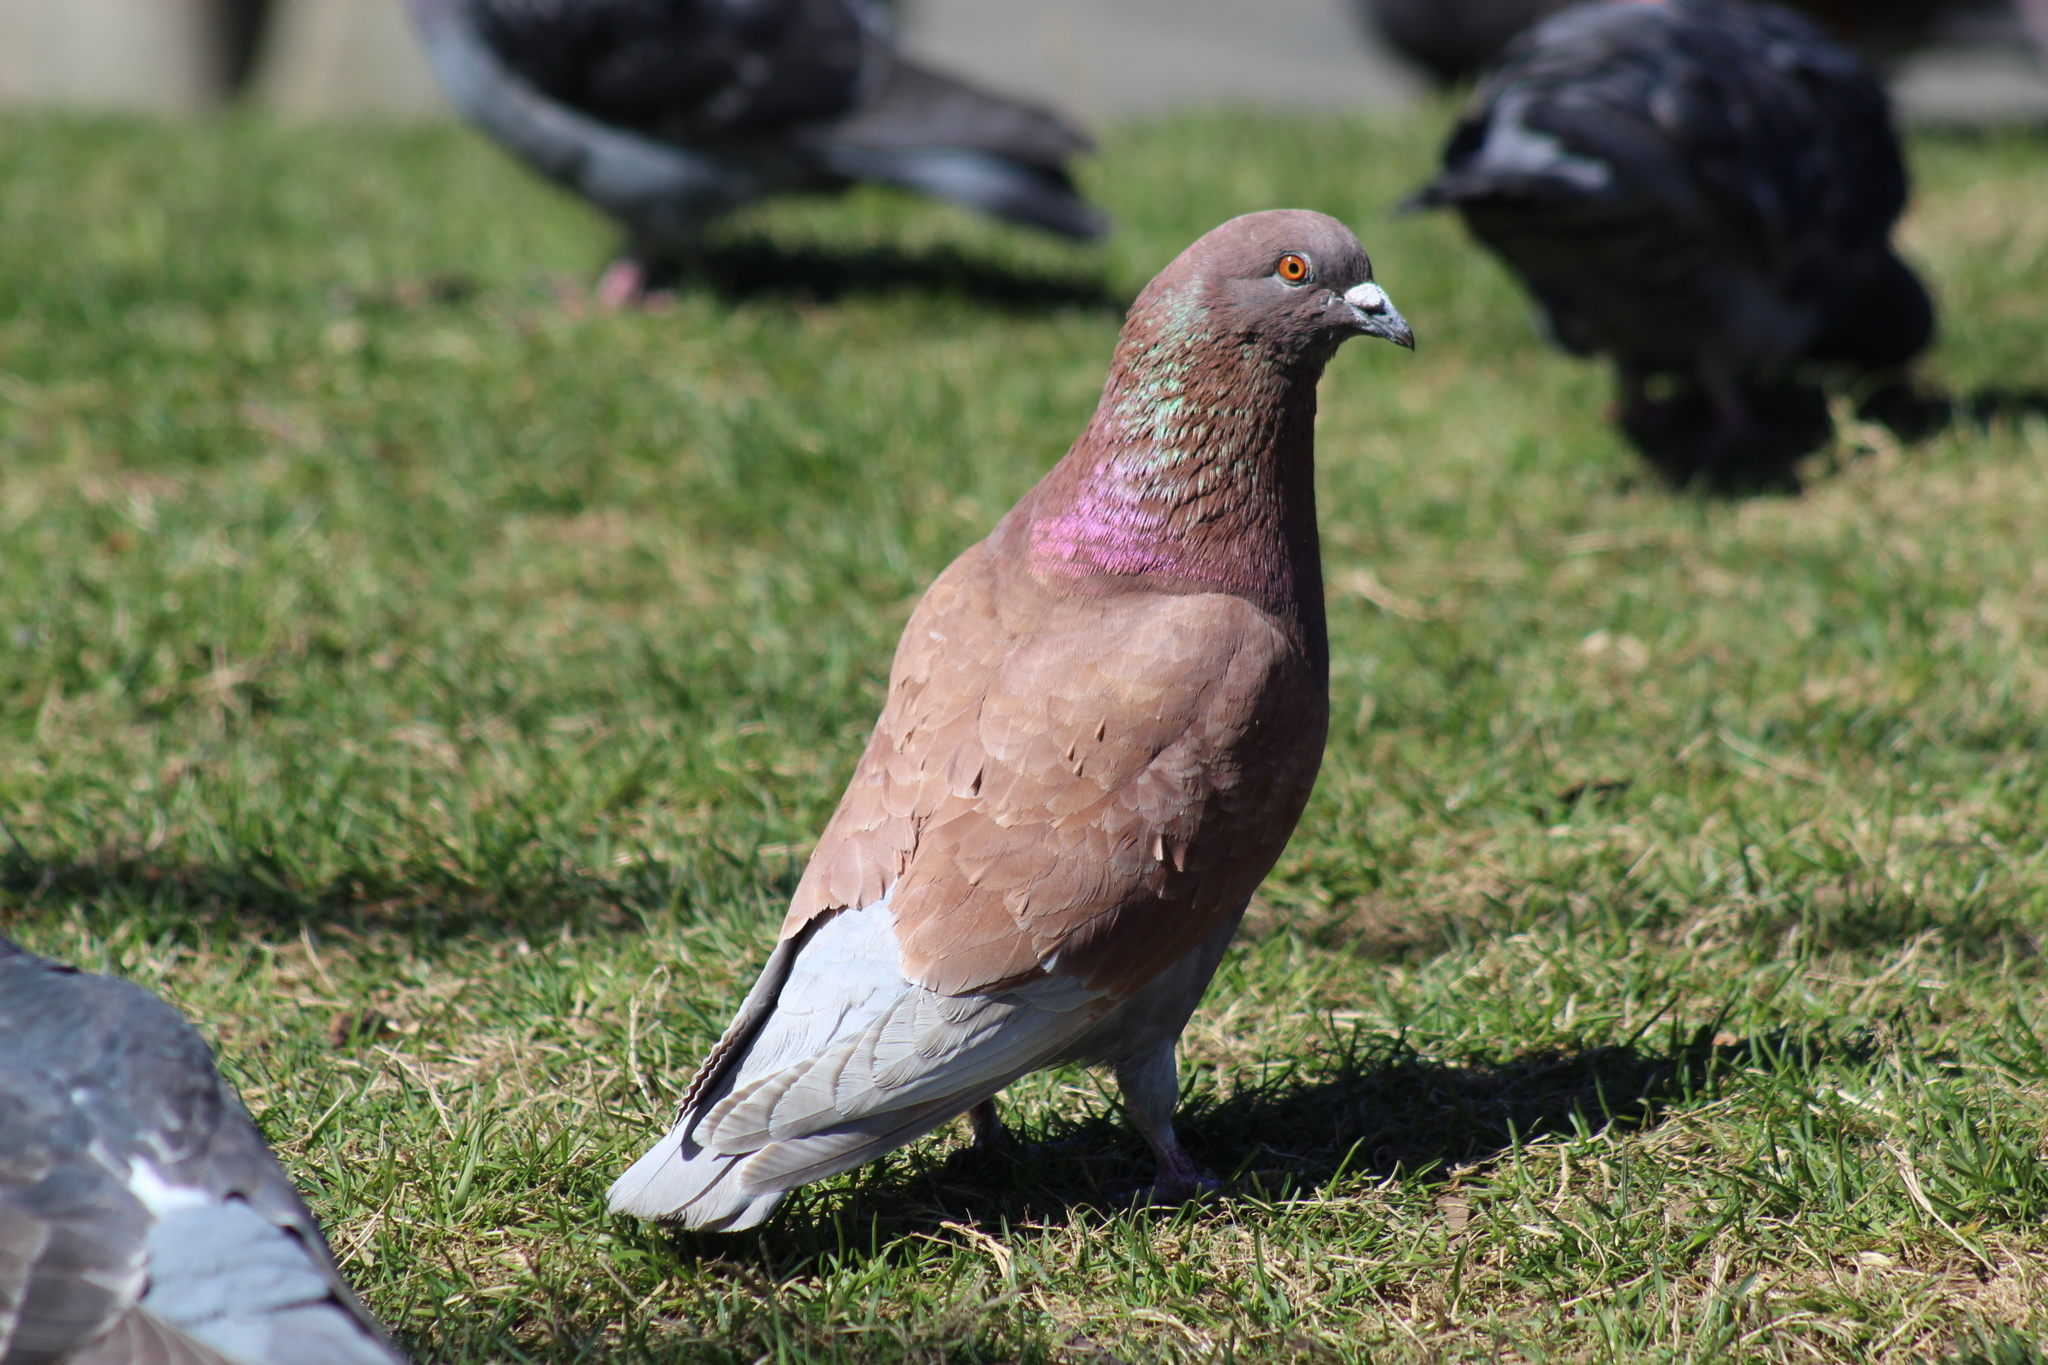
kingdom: Animalia
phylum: Chordata
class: Aves
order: Columbiformes
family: Columbidae
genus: Columba
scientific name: Columba livia
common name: Rock pigeon
